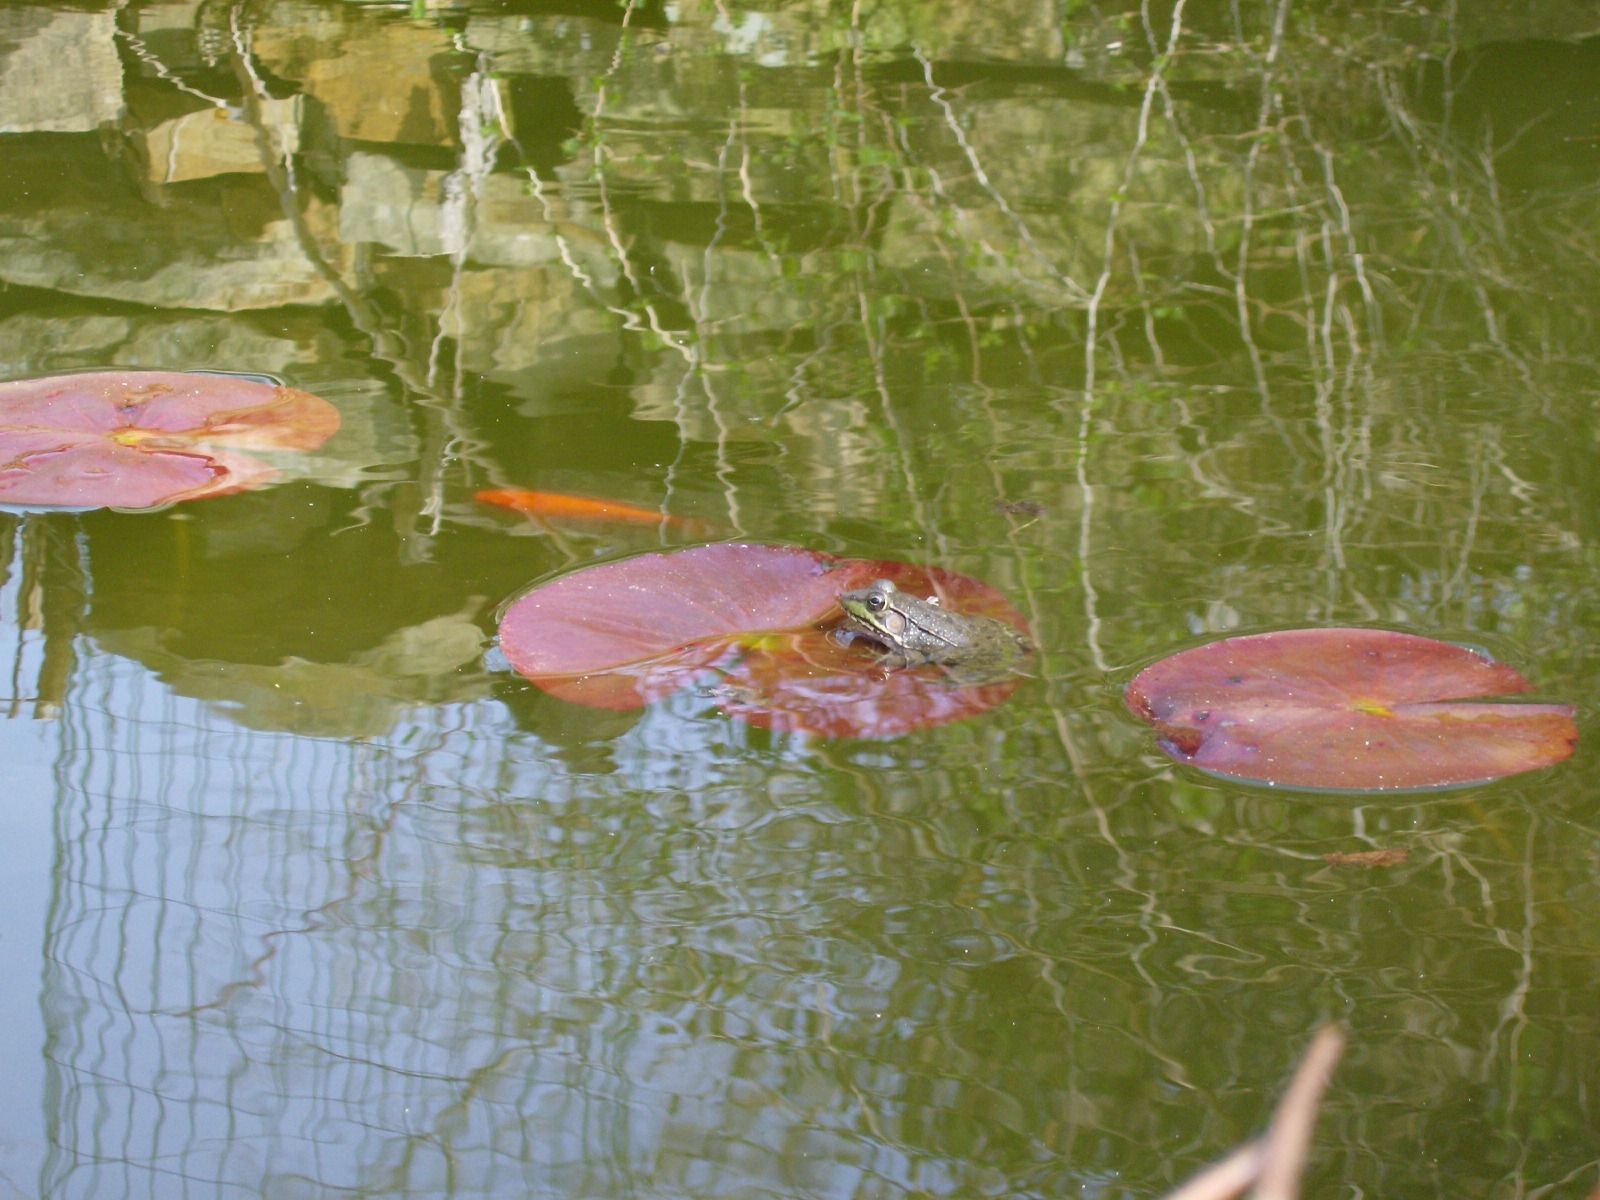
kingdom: Animalia
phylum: Chordata
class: Amphibia
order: Anura
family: Ranidae
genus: Lithobates
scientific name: Lithobates clamitans
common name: Green frog
